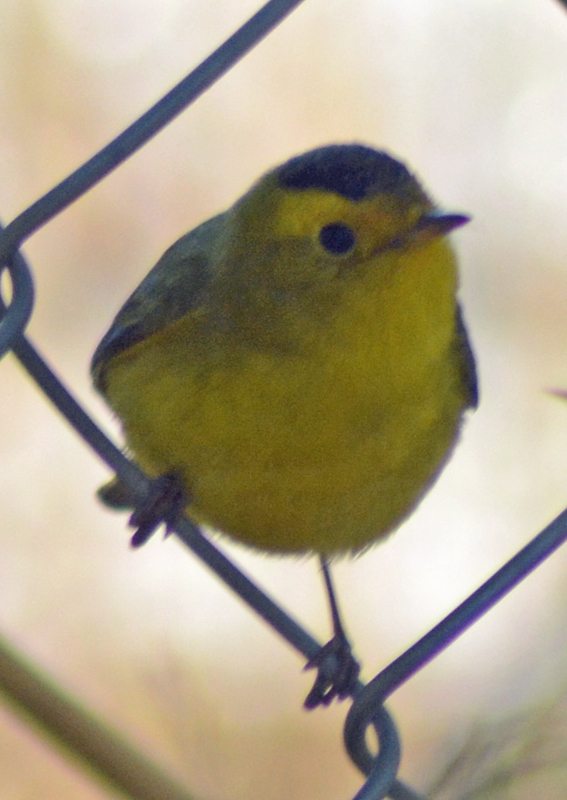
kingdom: Animalia
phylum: Chordata
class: Aves
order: Passeriformes
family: Parulidae
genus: Cardellina
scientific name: Cardellina pusilla
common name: Wilson's warbler
